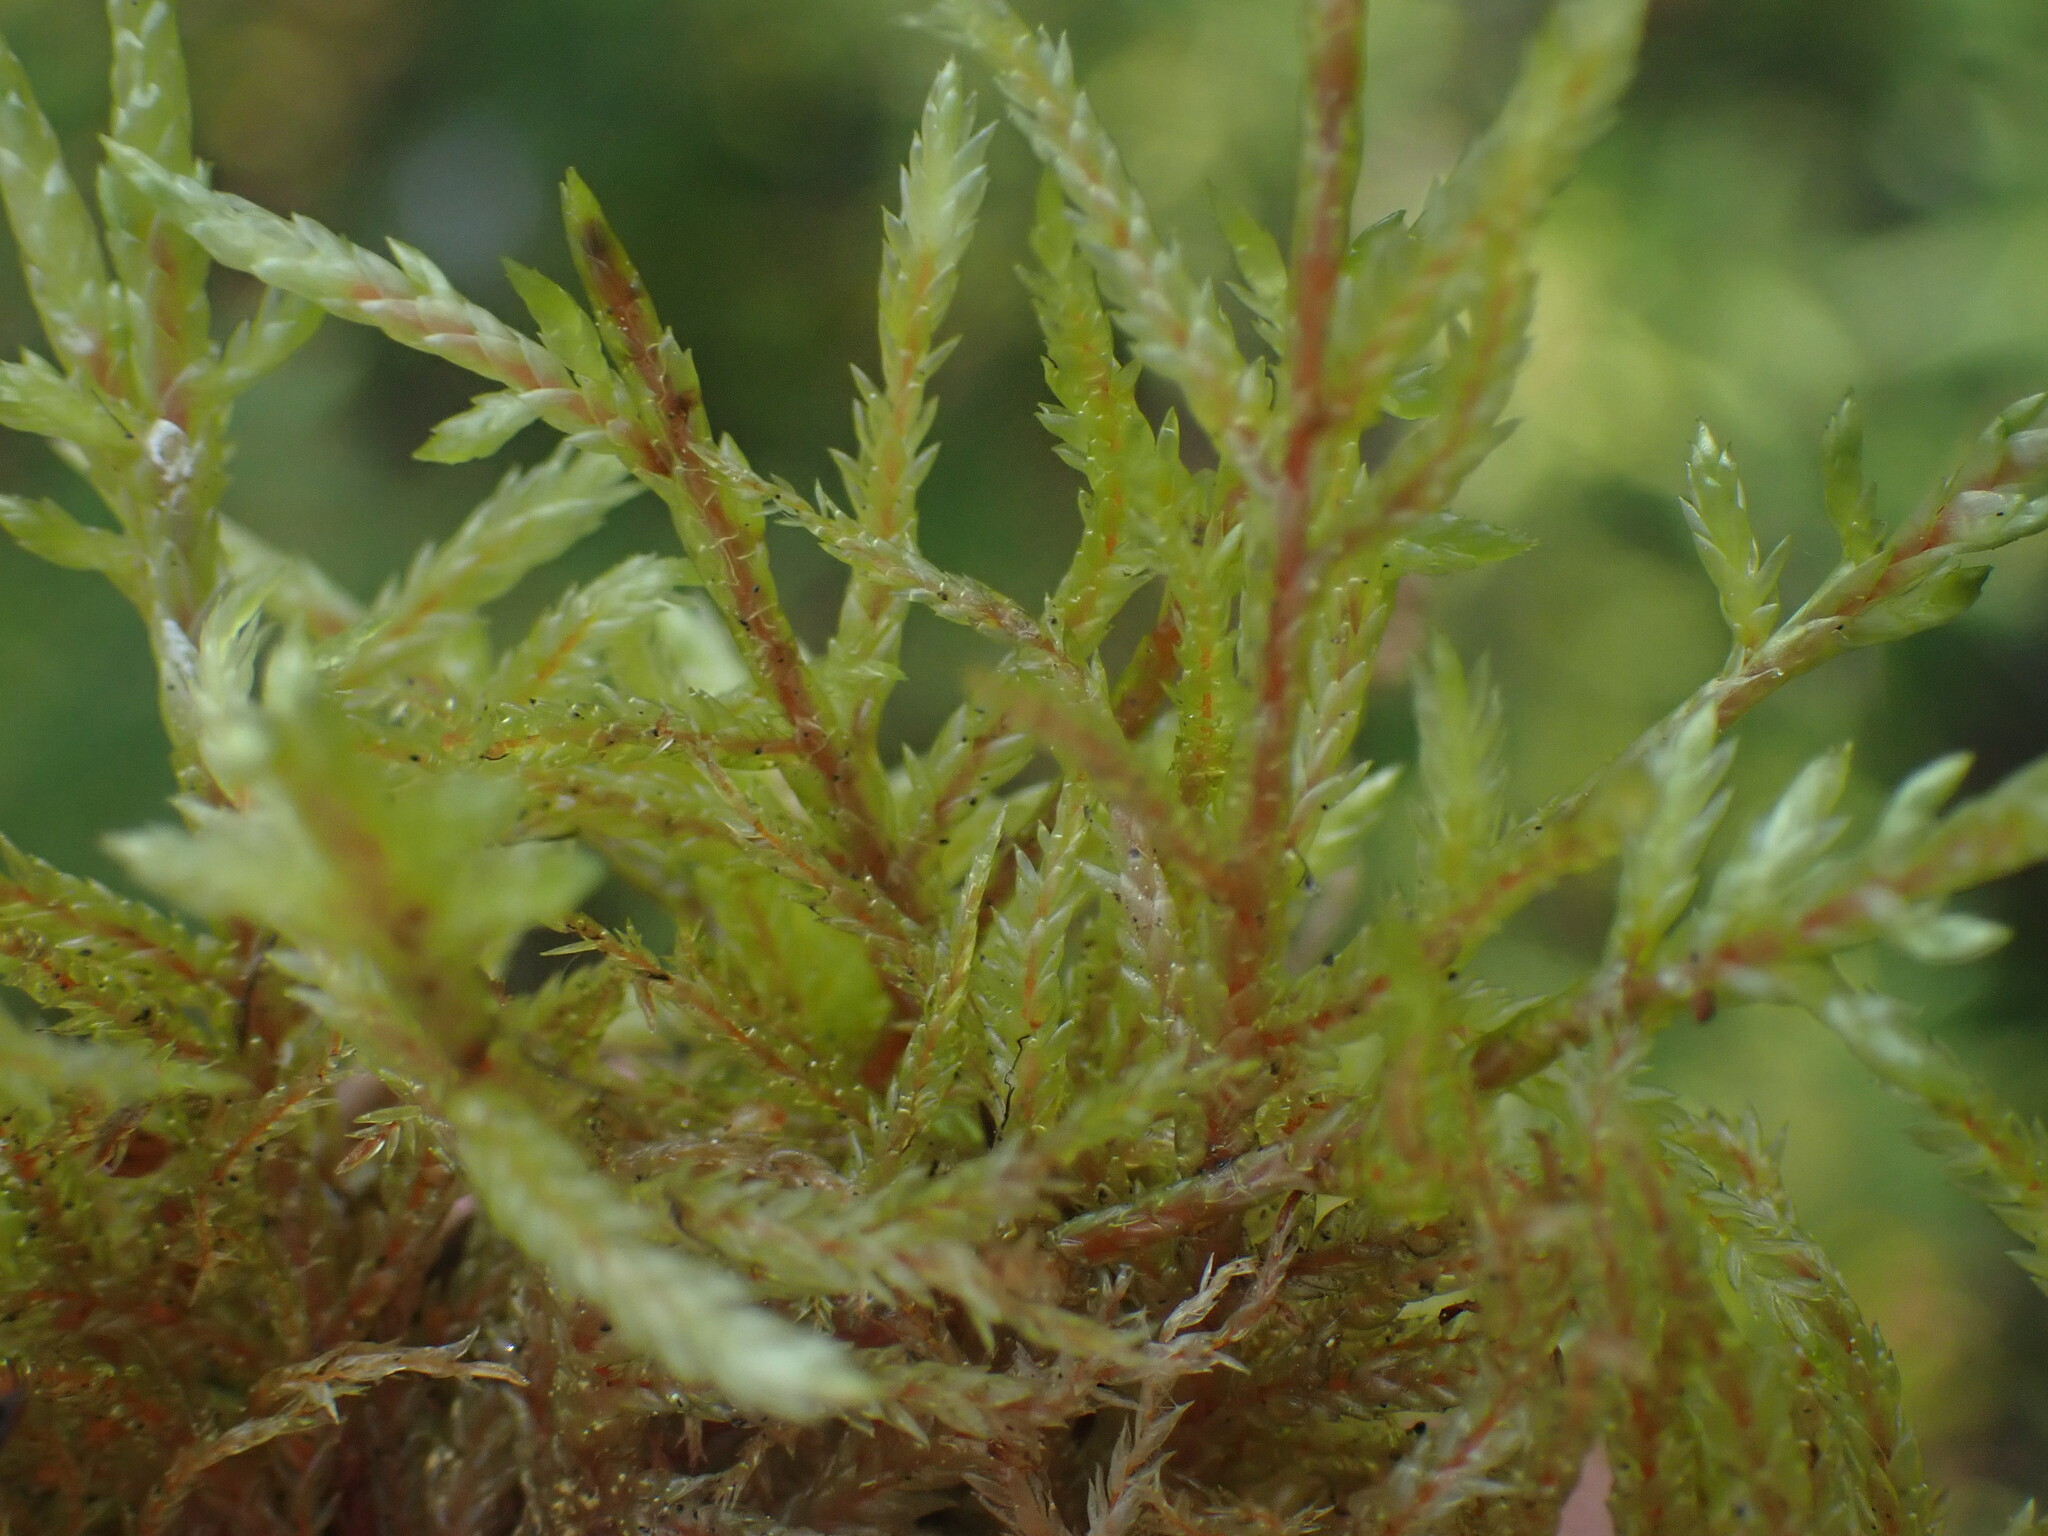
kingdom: Plantae
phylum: Bryophyta
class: Bryopsida
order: Hypnales
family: Hylocomiaceae
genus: Pleurozium
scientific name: Pleurozium schreberi
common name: Red-stemmed feather moss
